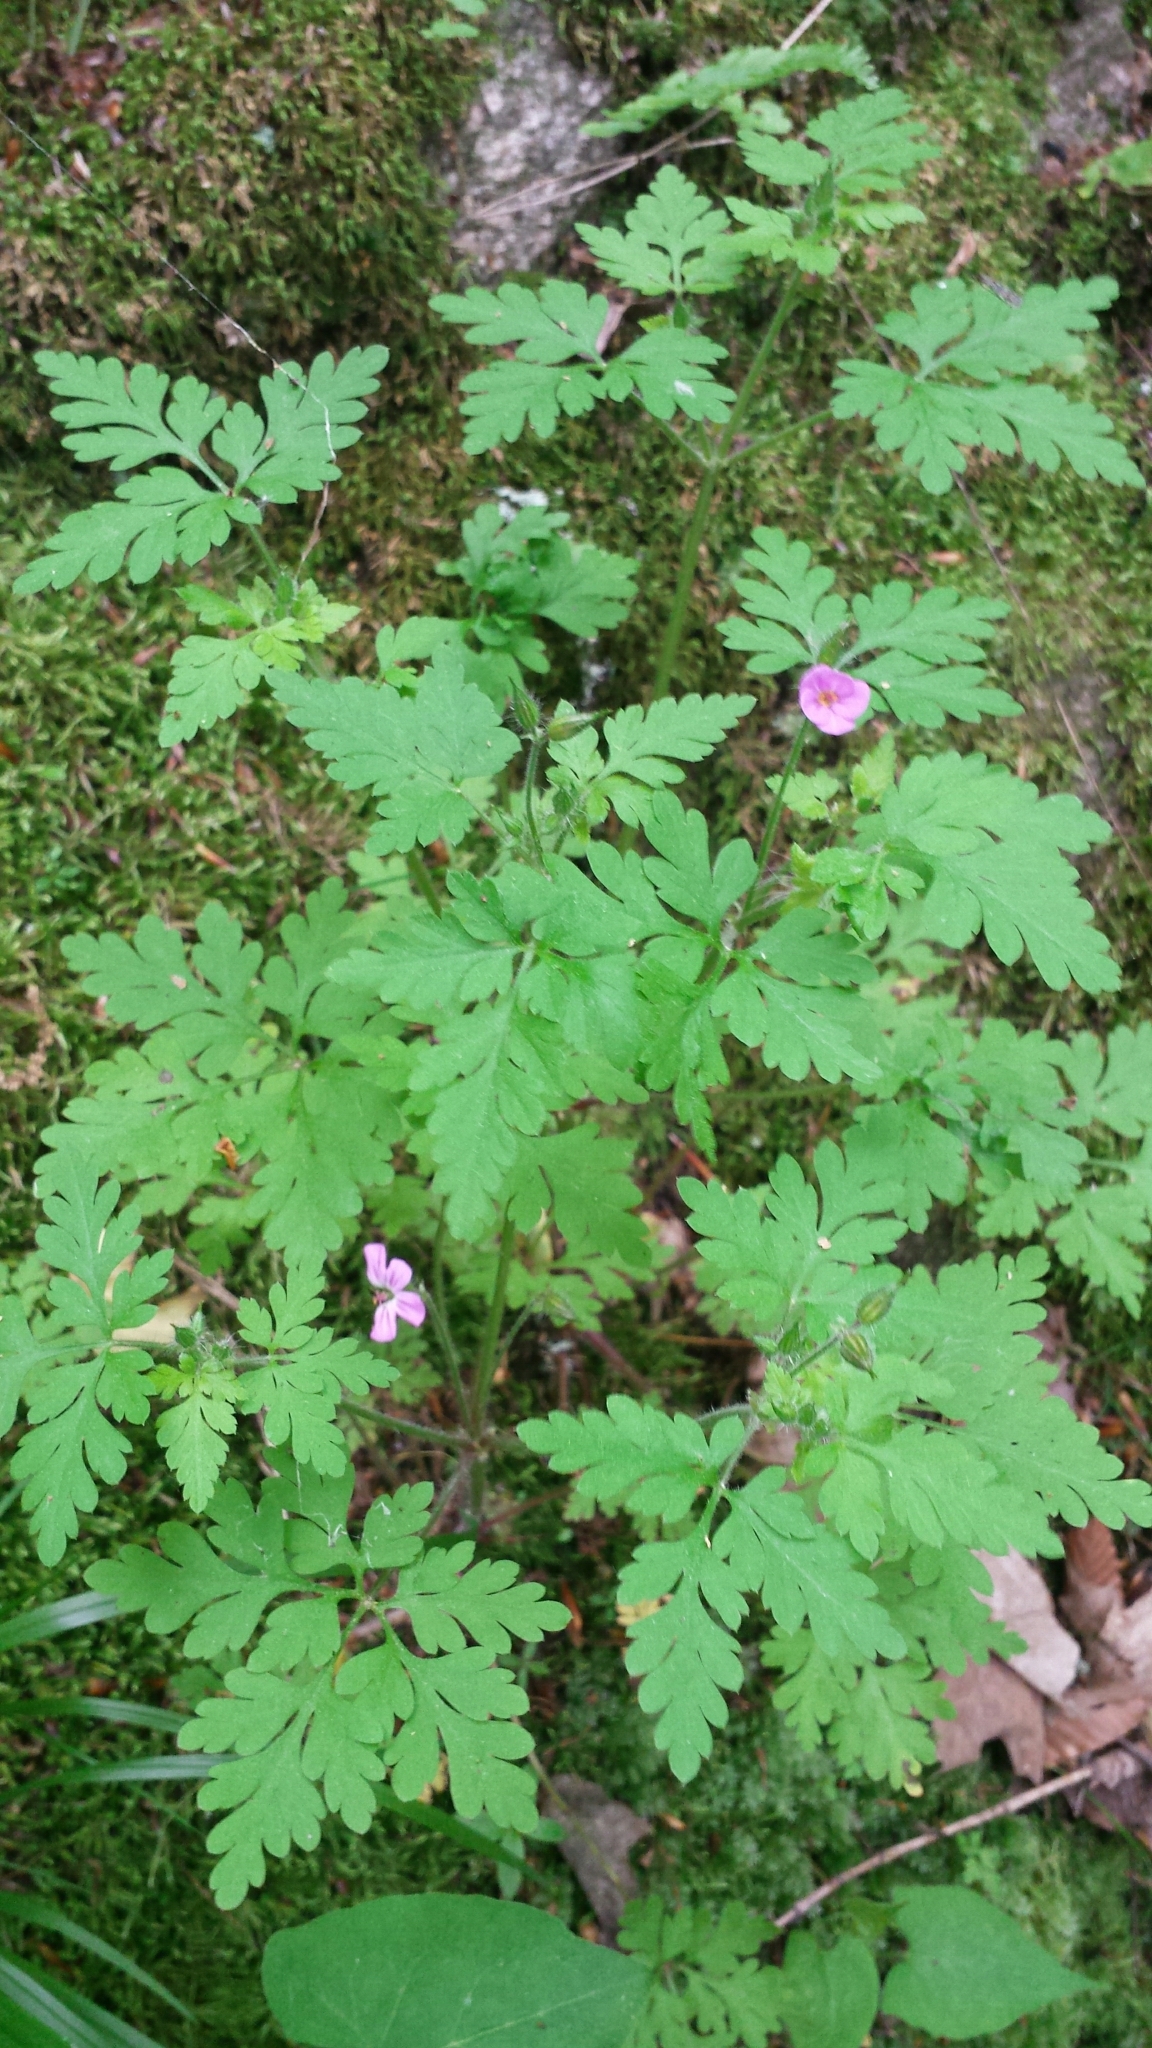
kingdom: Plantae
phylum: Tracheophyta
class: Magnoliopsida
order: Geraniales
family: Geraniaceae
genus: Geranium
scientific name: Geranium robertianum
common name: Herb-robert
